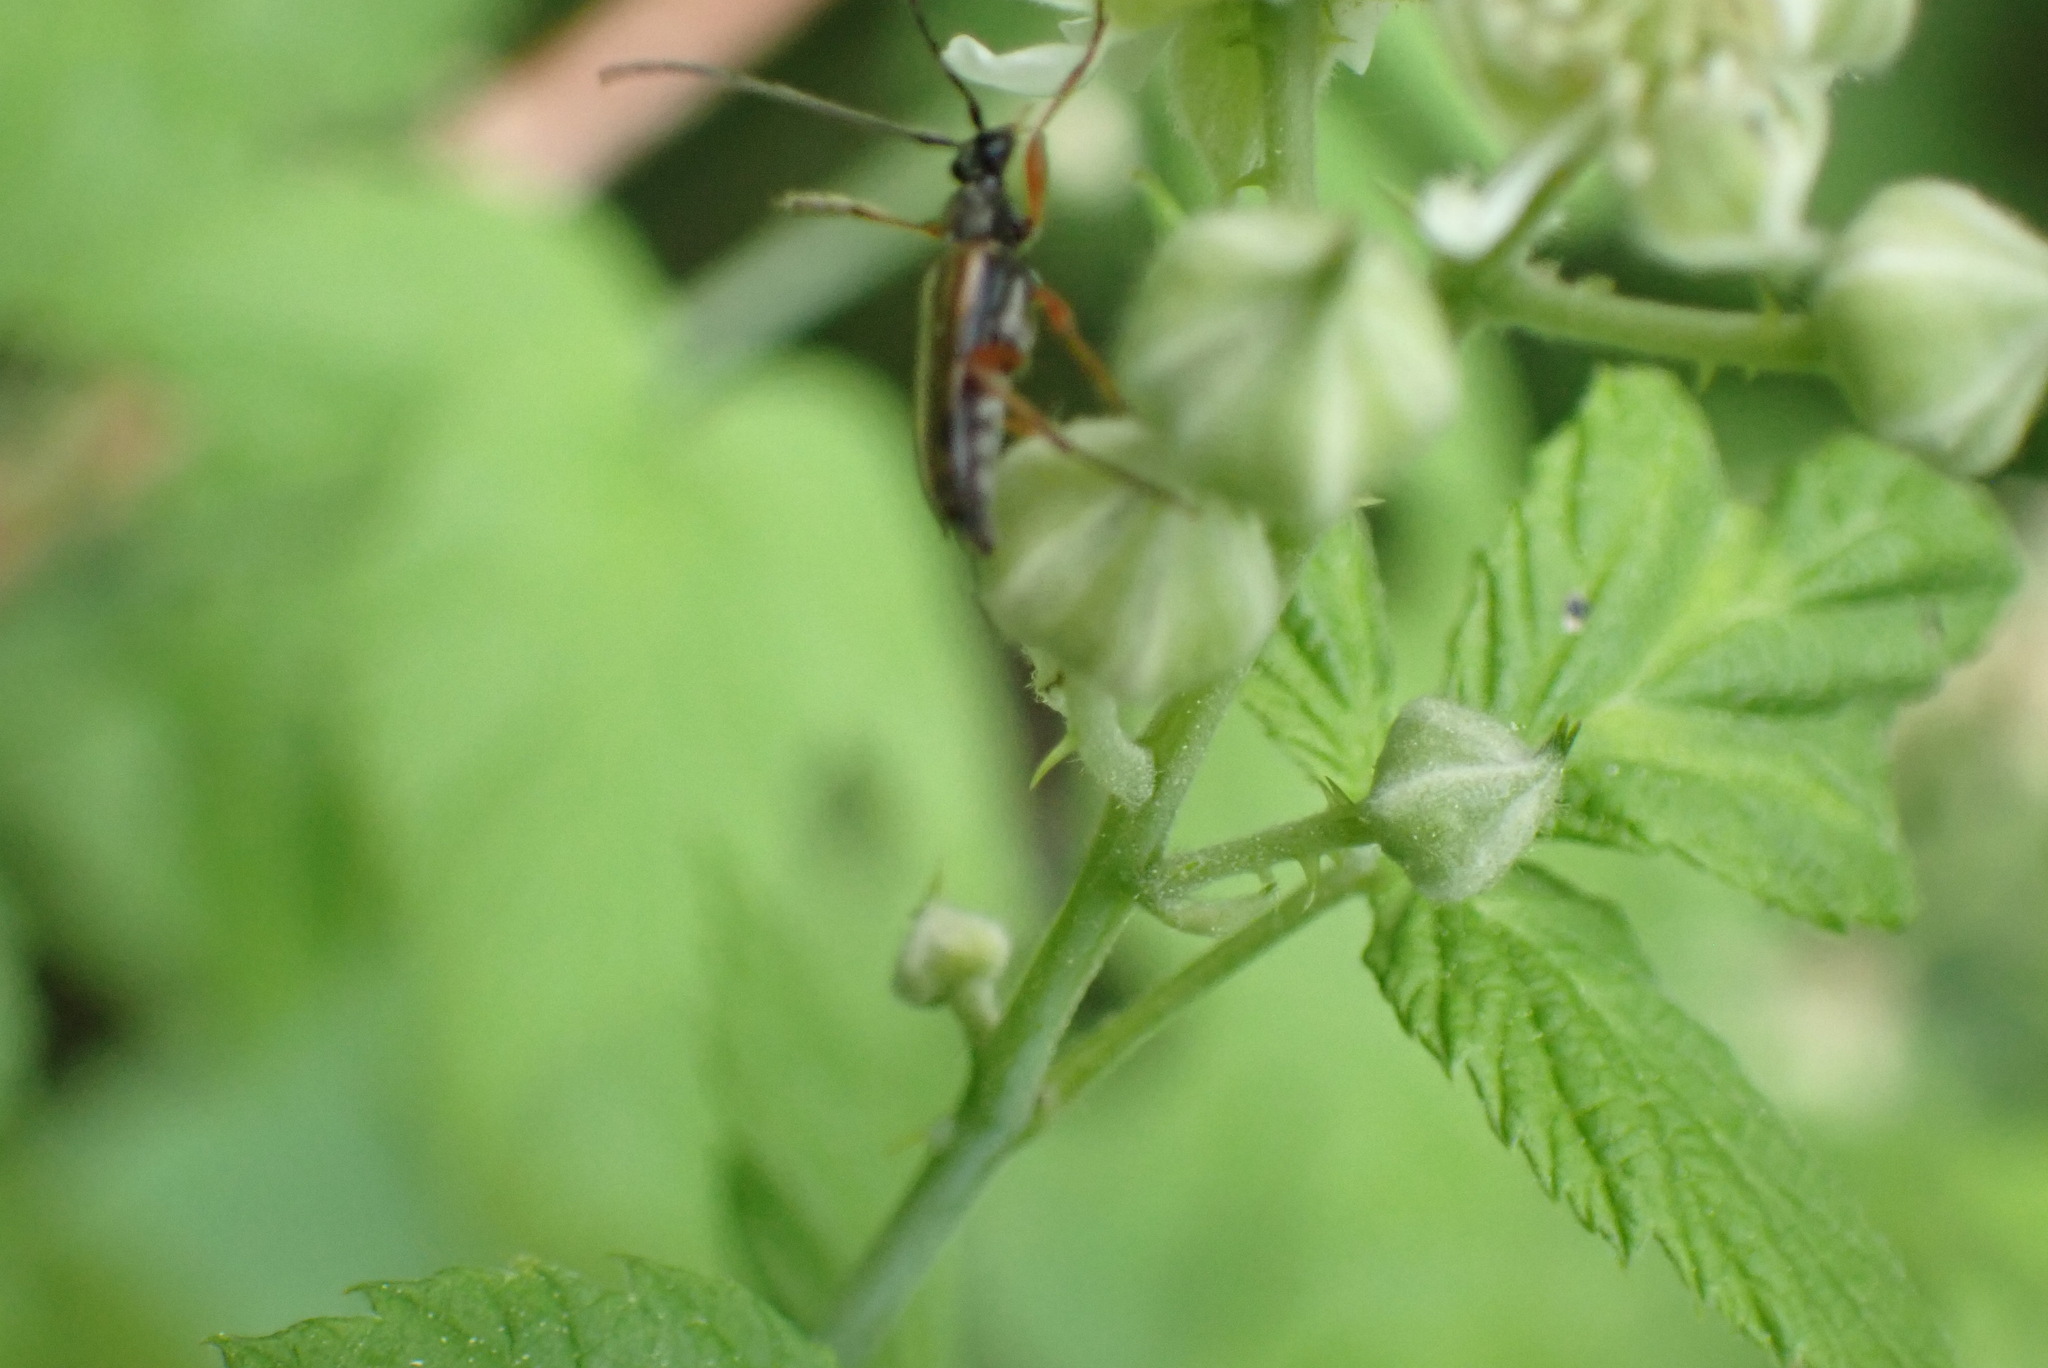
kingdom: Animalia
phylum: Arthropoda
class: Insecta
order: Coleoptera
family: Cerambycidae
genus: Analeptura
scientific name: Analeptura lineola
